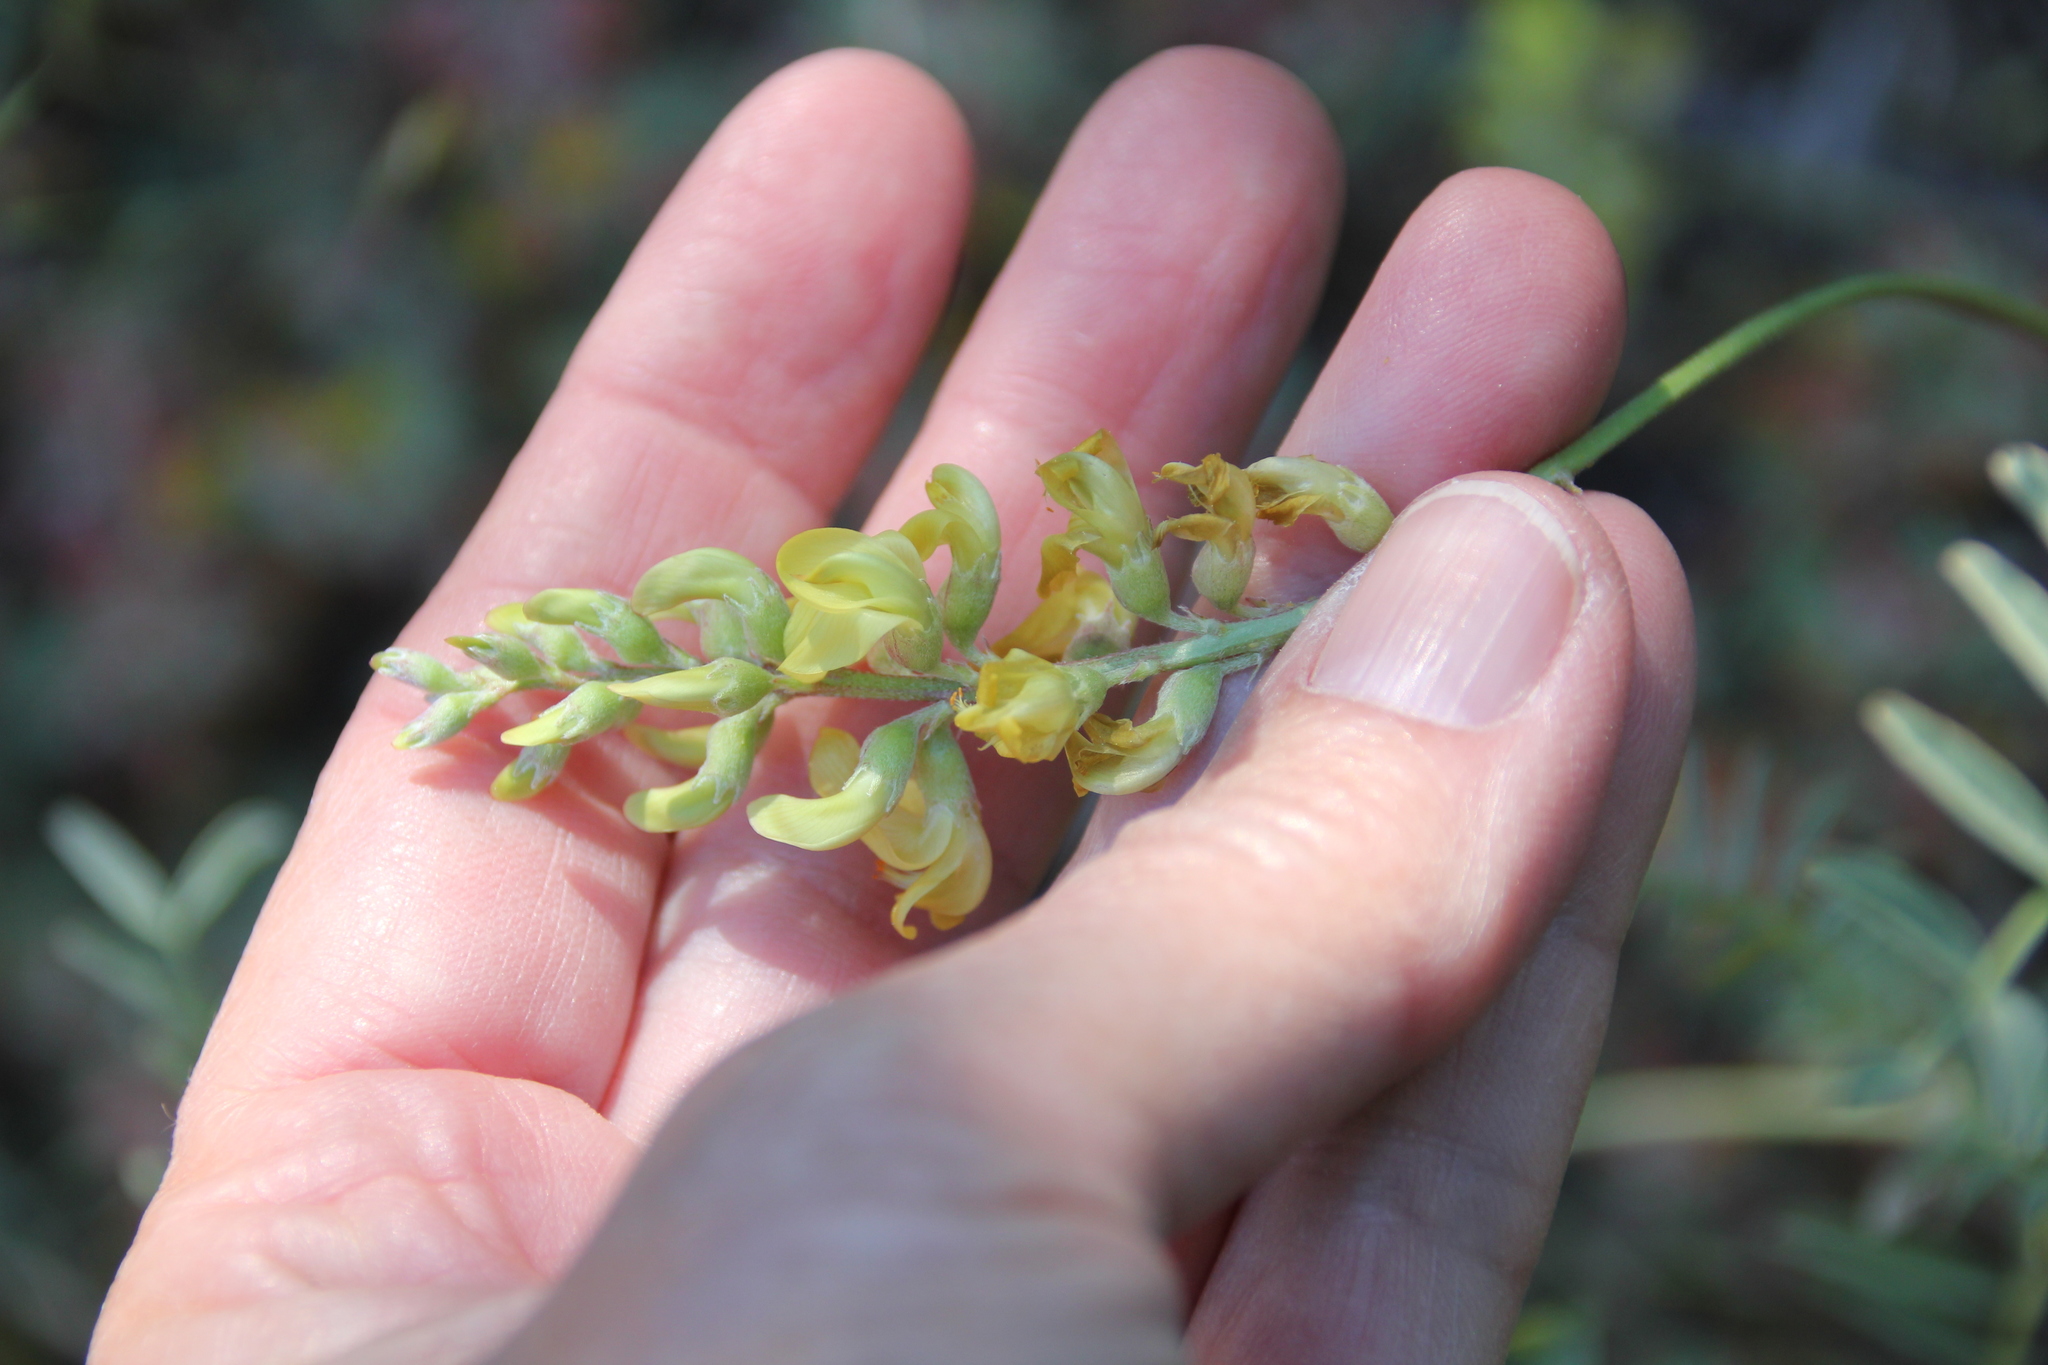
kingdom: Plantae
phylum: Tracheophyta
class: Magnoliopsida
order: Fabales
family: Fabaceae
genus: Astragalus
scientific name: Astragalus douglasii
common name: Jacumba milkvetch
